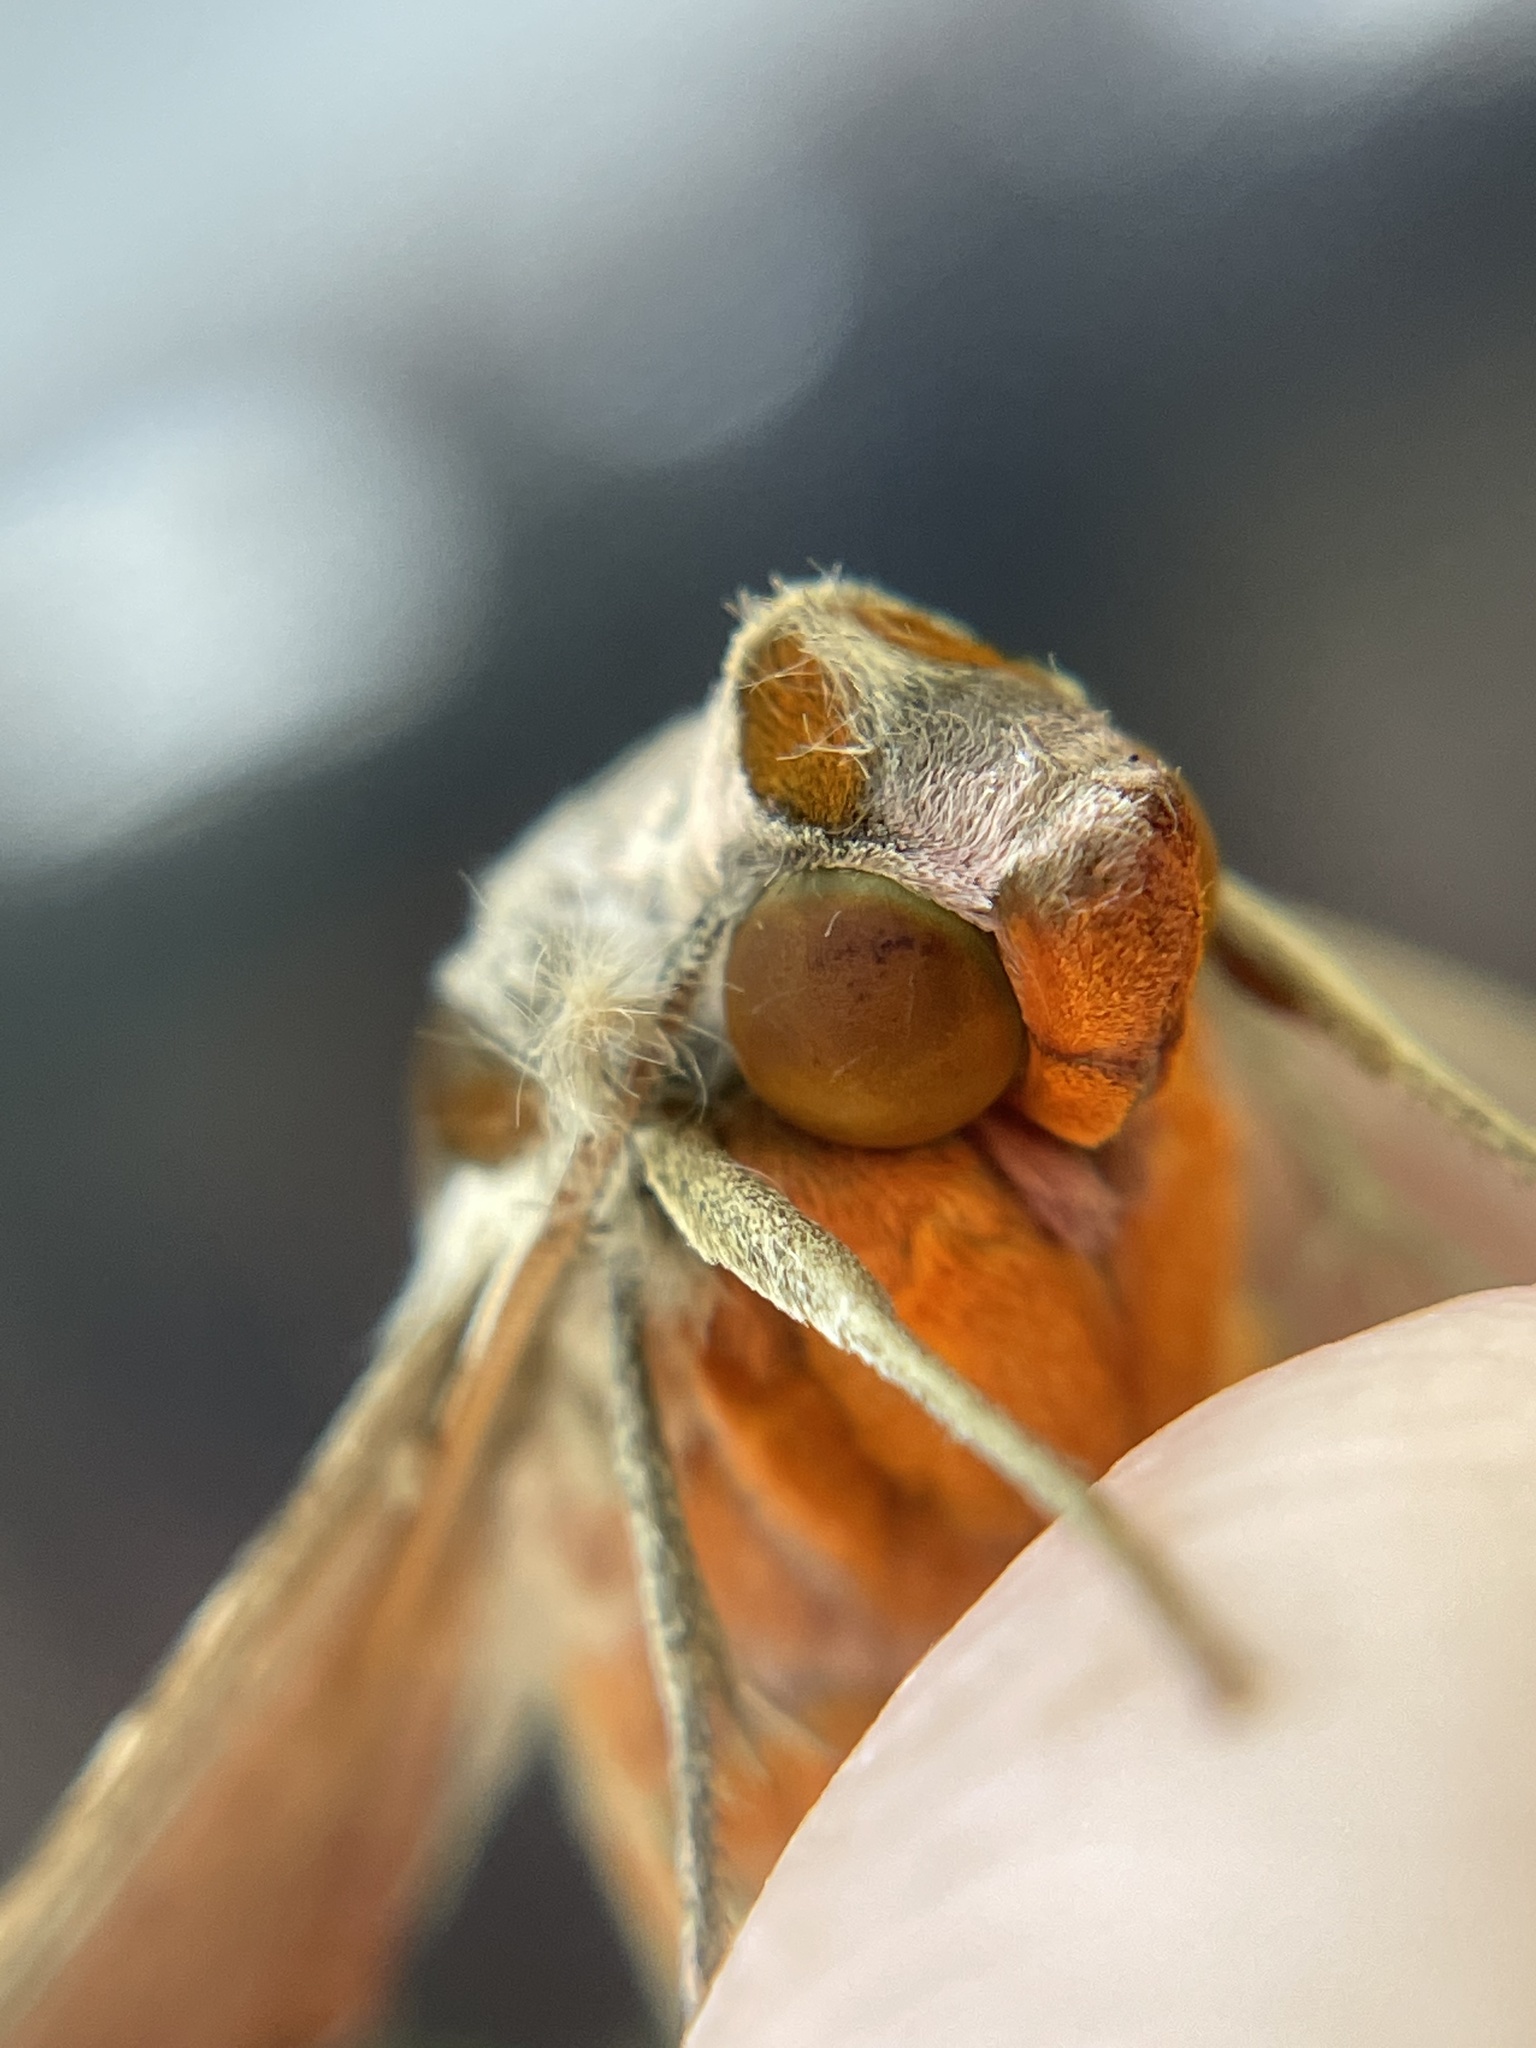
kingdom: Animalia
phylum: Arthropoda
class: Insecta
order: Lepidoptera
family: Sphingidae
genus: Protambulyx
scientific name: Protambulyx strigilis
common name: Streaked sphinx
